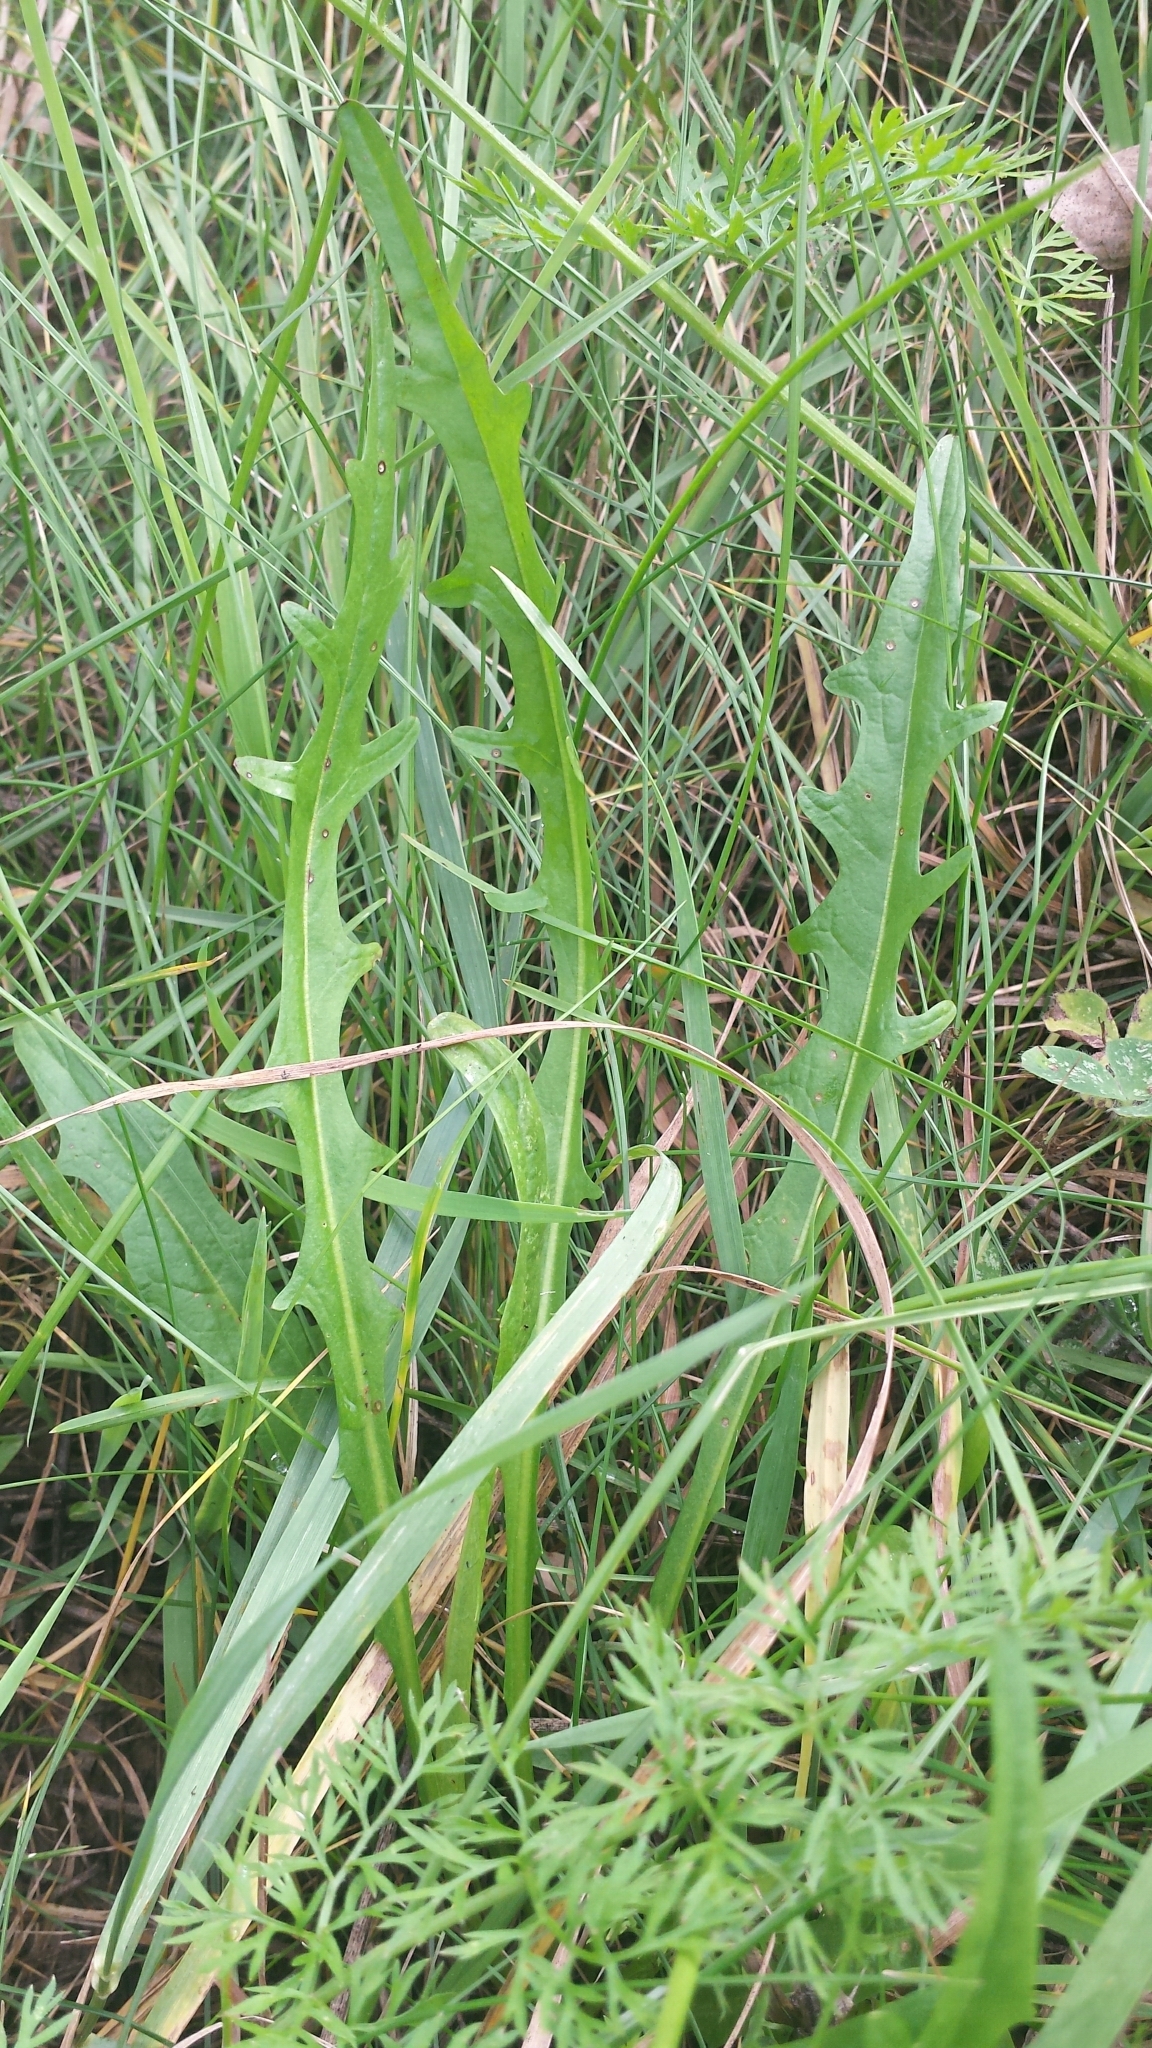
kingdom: Plantae
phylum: Tracheophyta
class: Magnoliopsida
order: Asterales
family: Asteraceae
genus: Scorzoneroides
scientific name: Scorzoneroides autumnalis
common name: Autumn hawkbit
